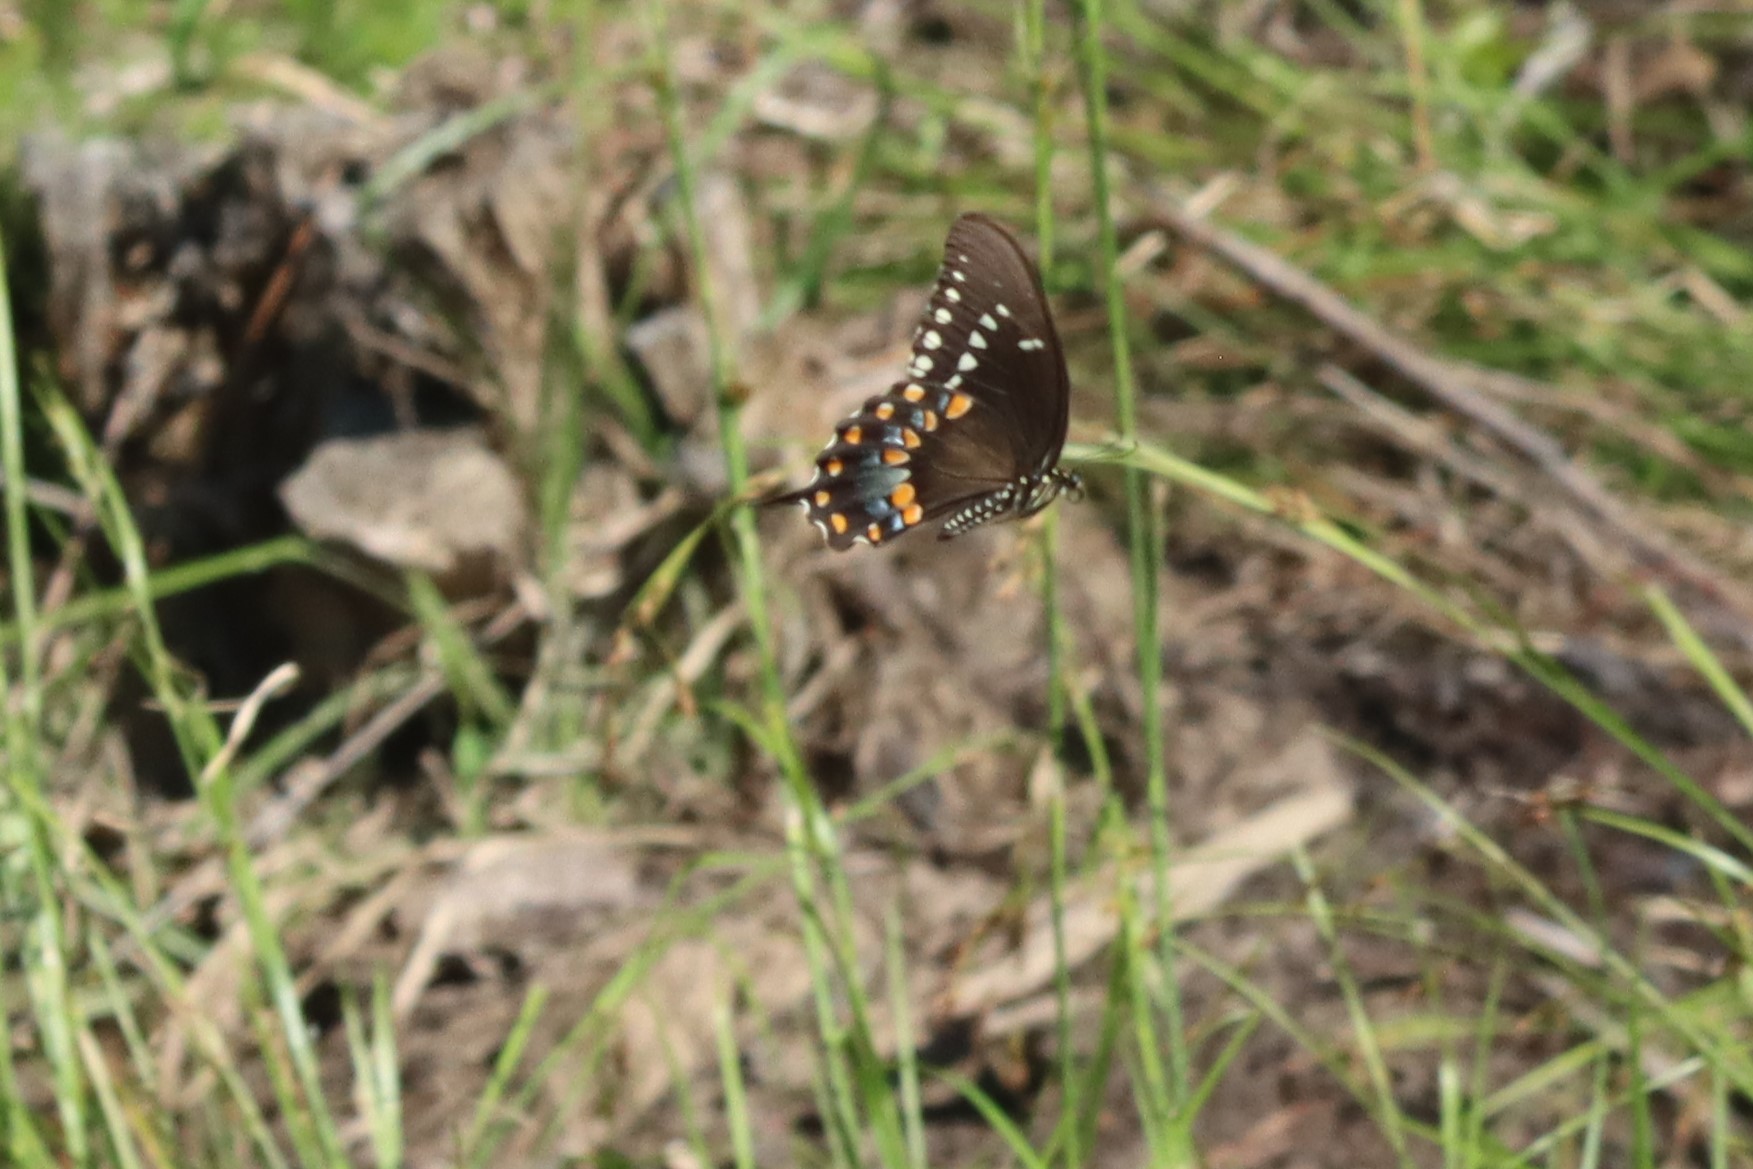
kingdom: Animalia
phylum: Arthropoda
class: Insecta
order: Lepidoptera
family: Papilionidae
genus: Papilio
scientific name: Papilio troilus
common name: Spicebush swallowtail
